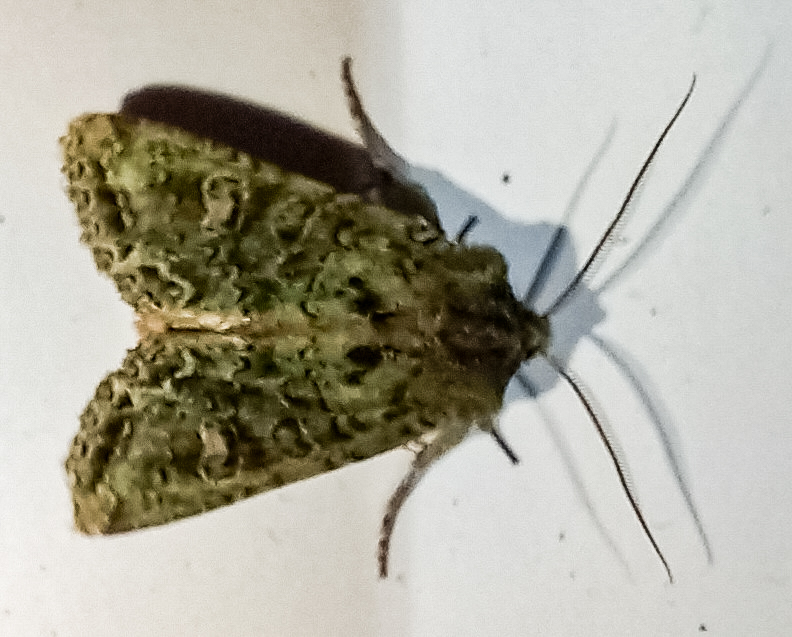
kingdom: Animalia
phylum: Arthropoda
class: Insecta
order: Lepidoptera
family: Noctuidae
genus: Ichneutica
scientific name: Ichneutica
